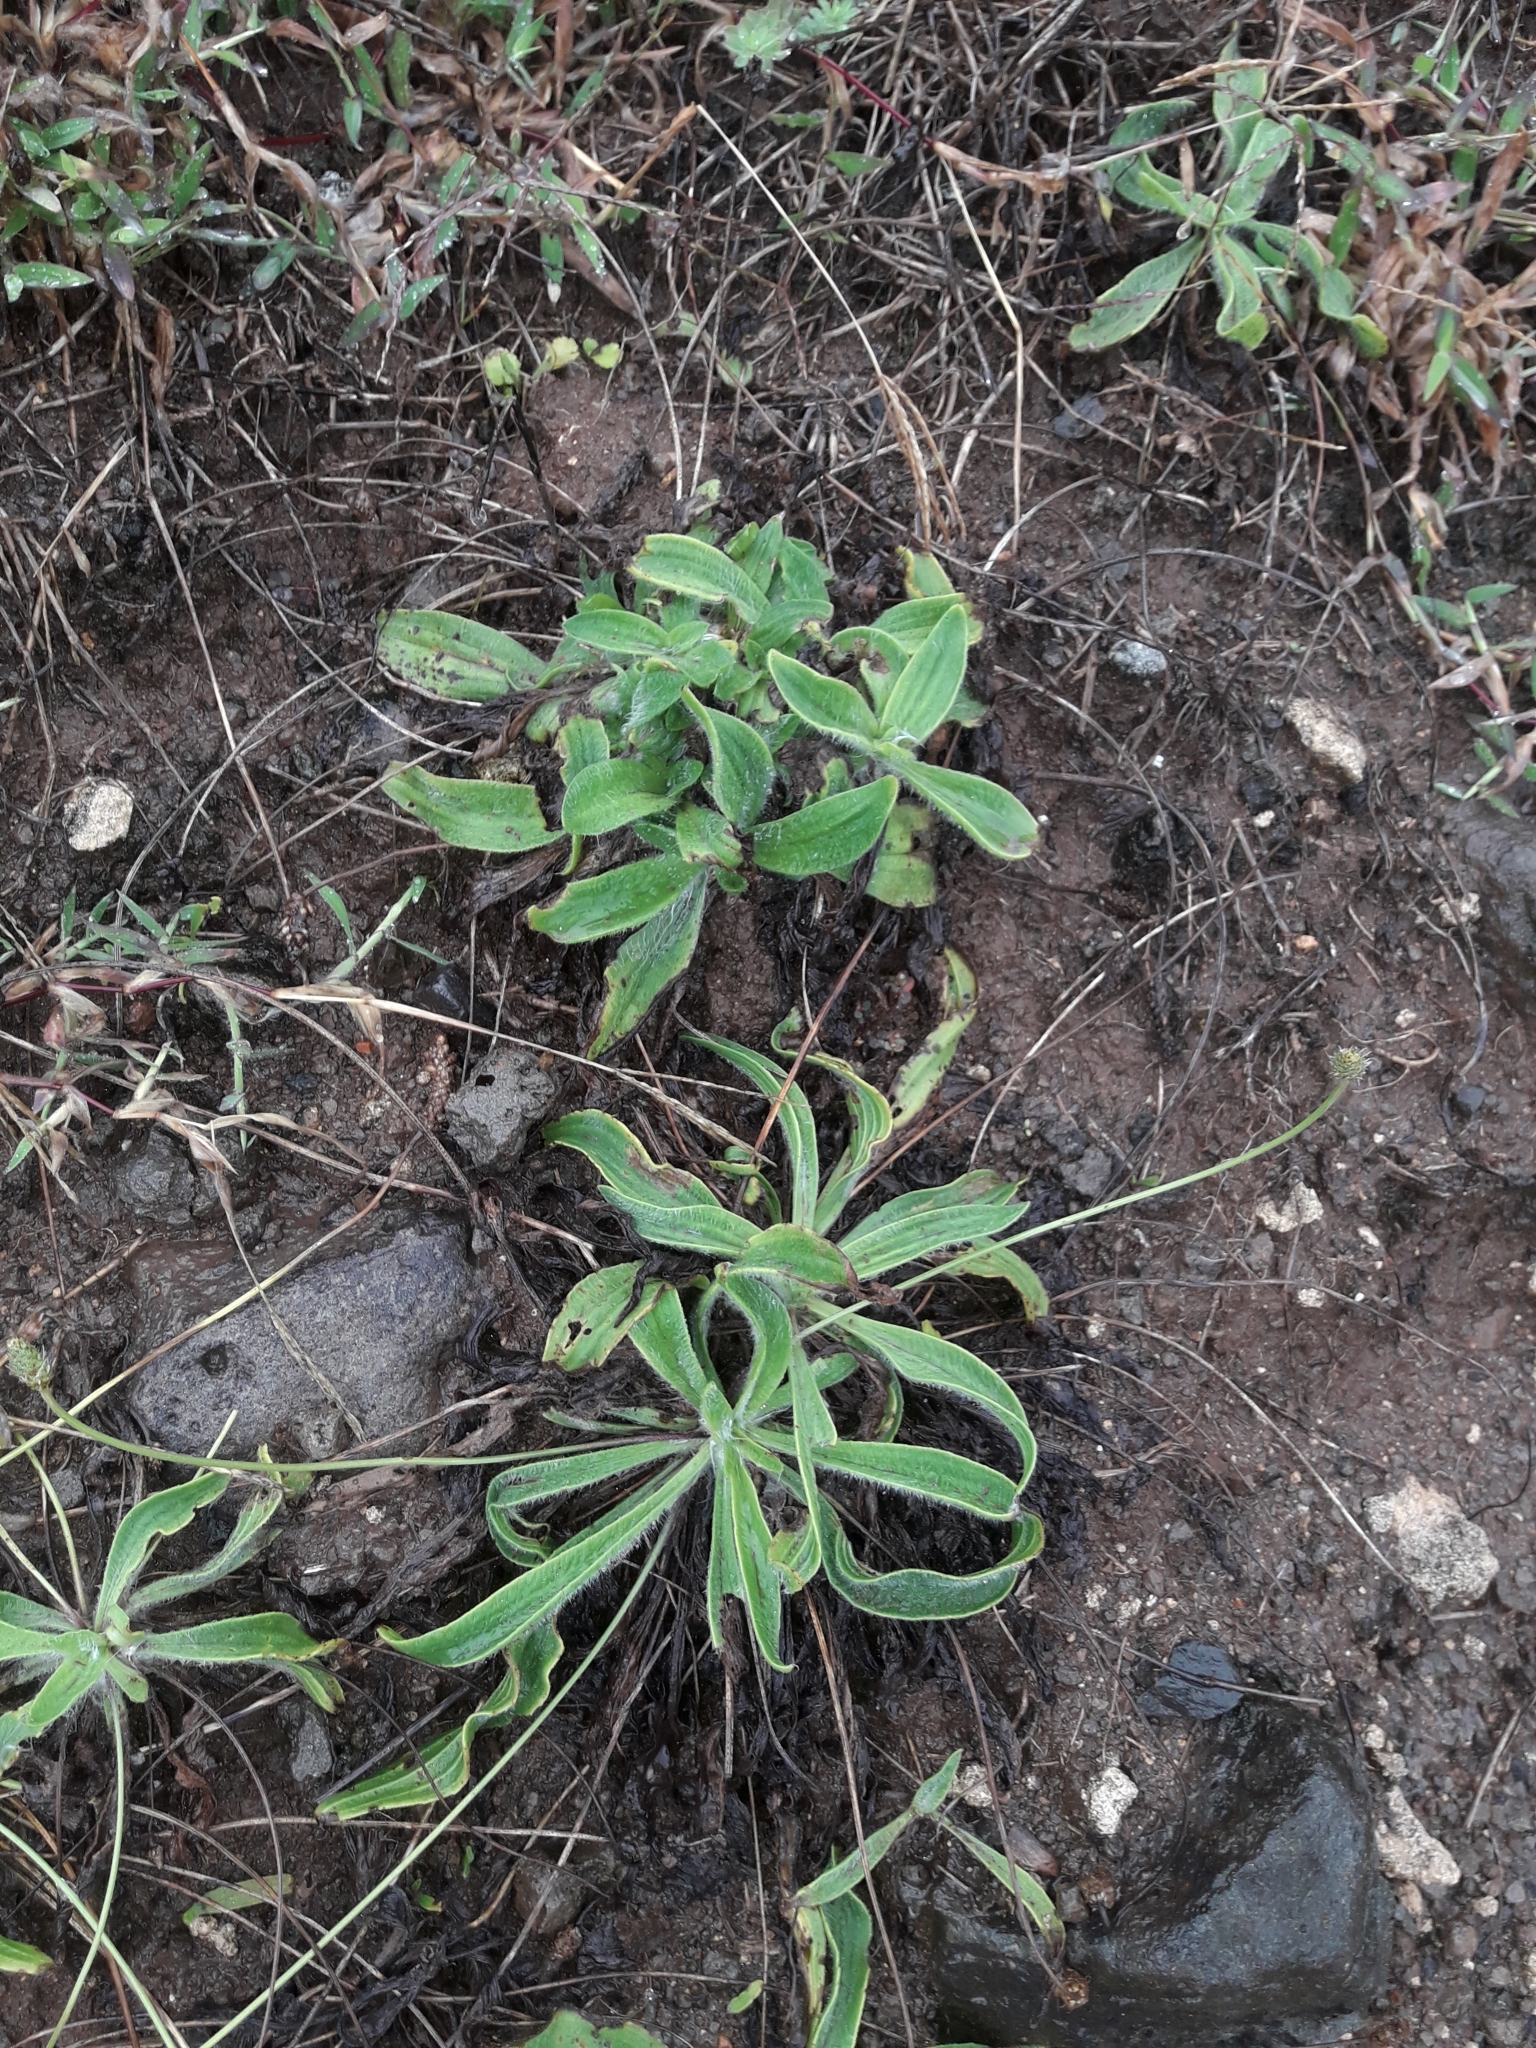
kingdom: Plantae
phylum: Tracheophyta
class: Magnoliopsida
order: Lamiales
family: Plantaginaceae
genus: Plantago
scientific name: Plantago lanceolata
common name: Ribwort plantain
